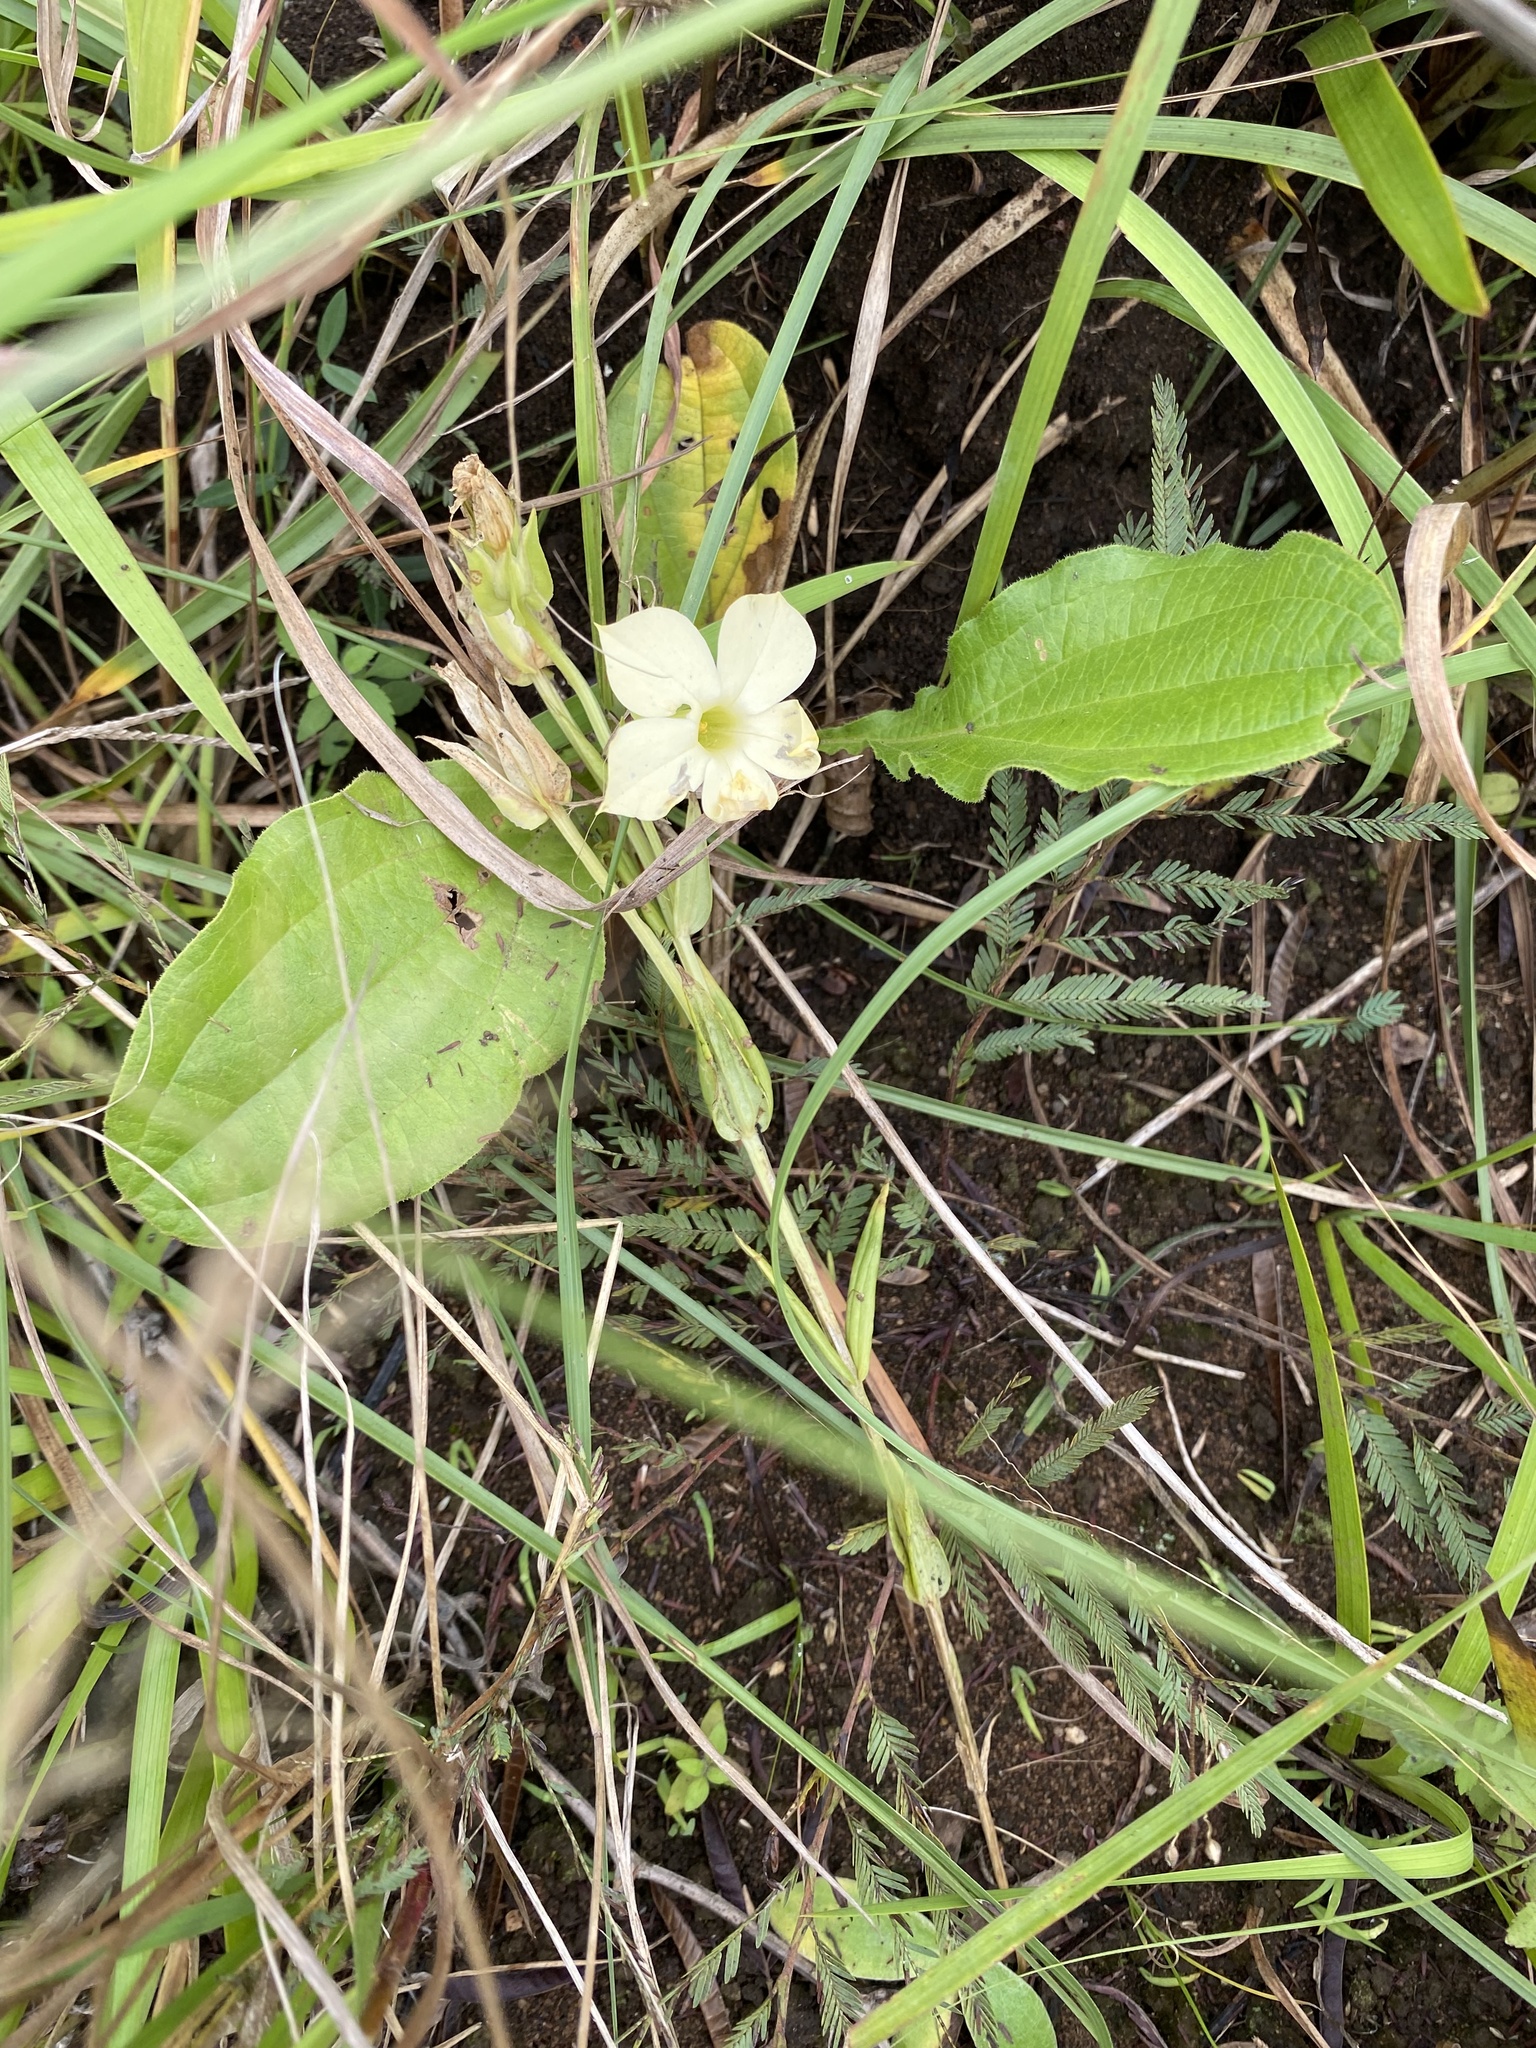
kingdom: Plantae
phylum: Tracheophyta
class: Magnoliopsida
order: Gentianales
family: Gentianaceae
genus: Exochaenium
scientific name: Exochaenium grande
